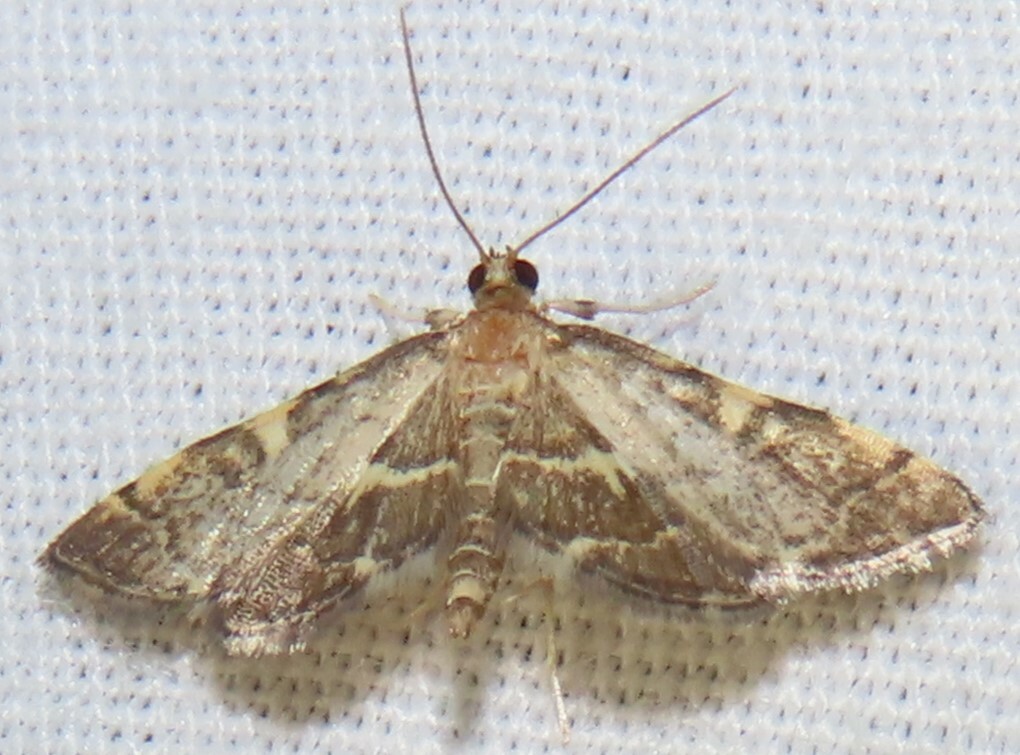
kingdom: Animalia
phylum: Arthropoda
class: Insecta
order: Lepidoptera
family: Crambidae
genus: Anageshna
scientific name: Anageshna primordialis
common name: Yellow-spotted webworm moth
